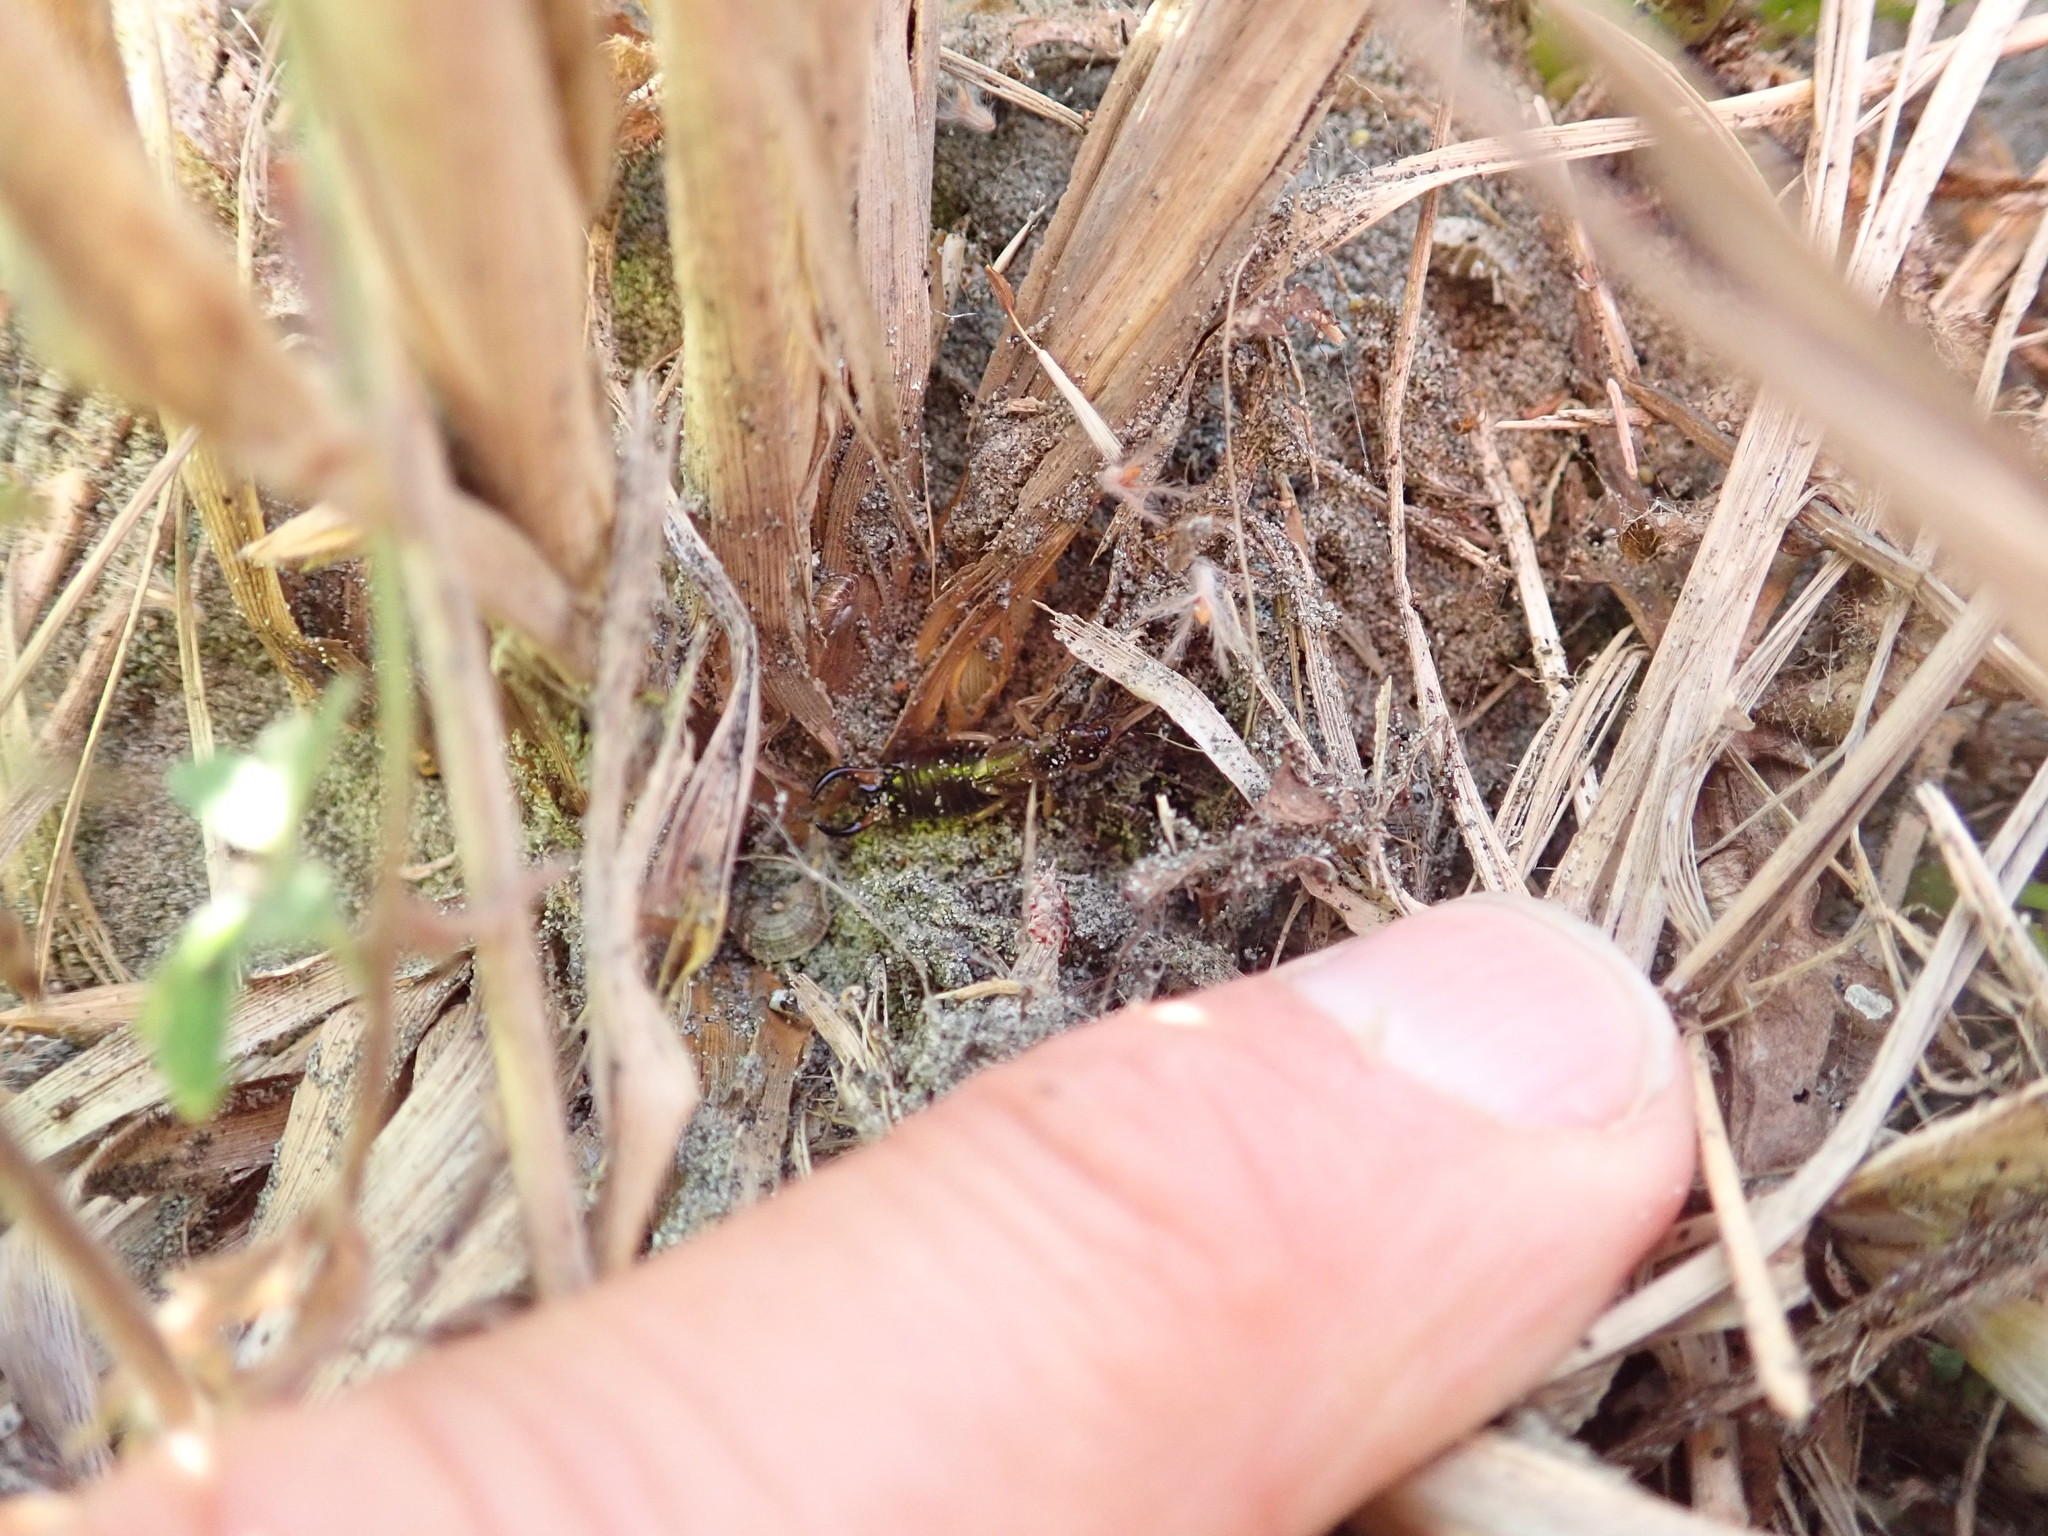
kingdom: Animalia
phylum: Arthropoda
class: Insecta
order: Dermaptera
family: Forficulidae
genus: Forficula
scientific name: Forficula
